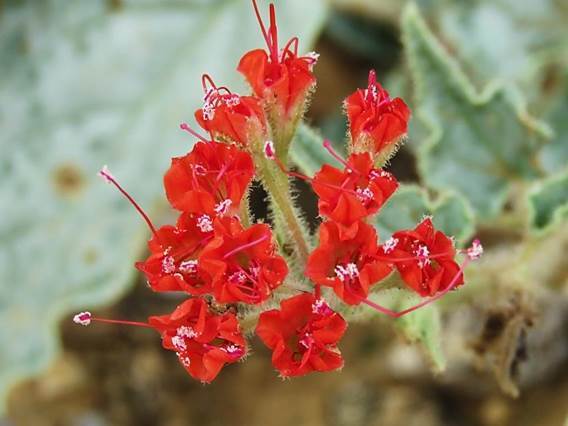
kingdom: Plantae
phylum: Tracheophyta
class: Magnoliopsida
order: Caryophyllales
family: Nyctaginaceae
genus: Nyctaginia
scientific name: Nyctaginia capitata
